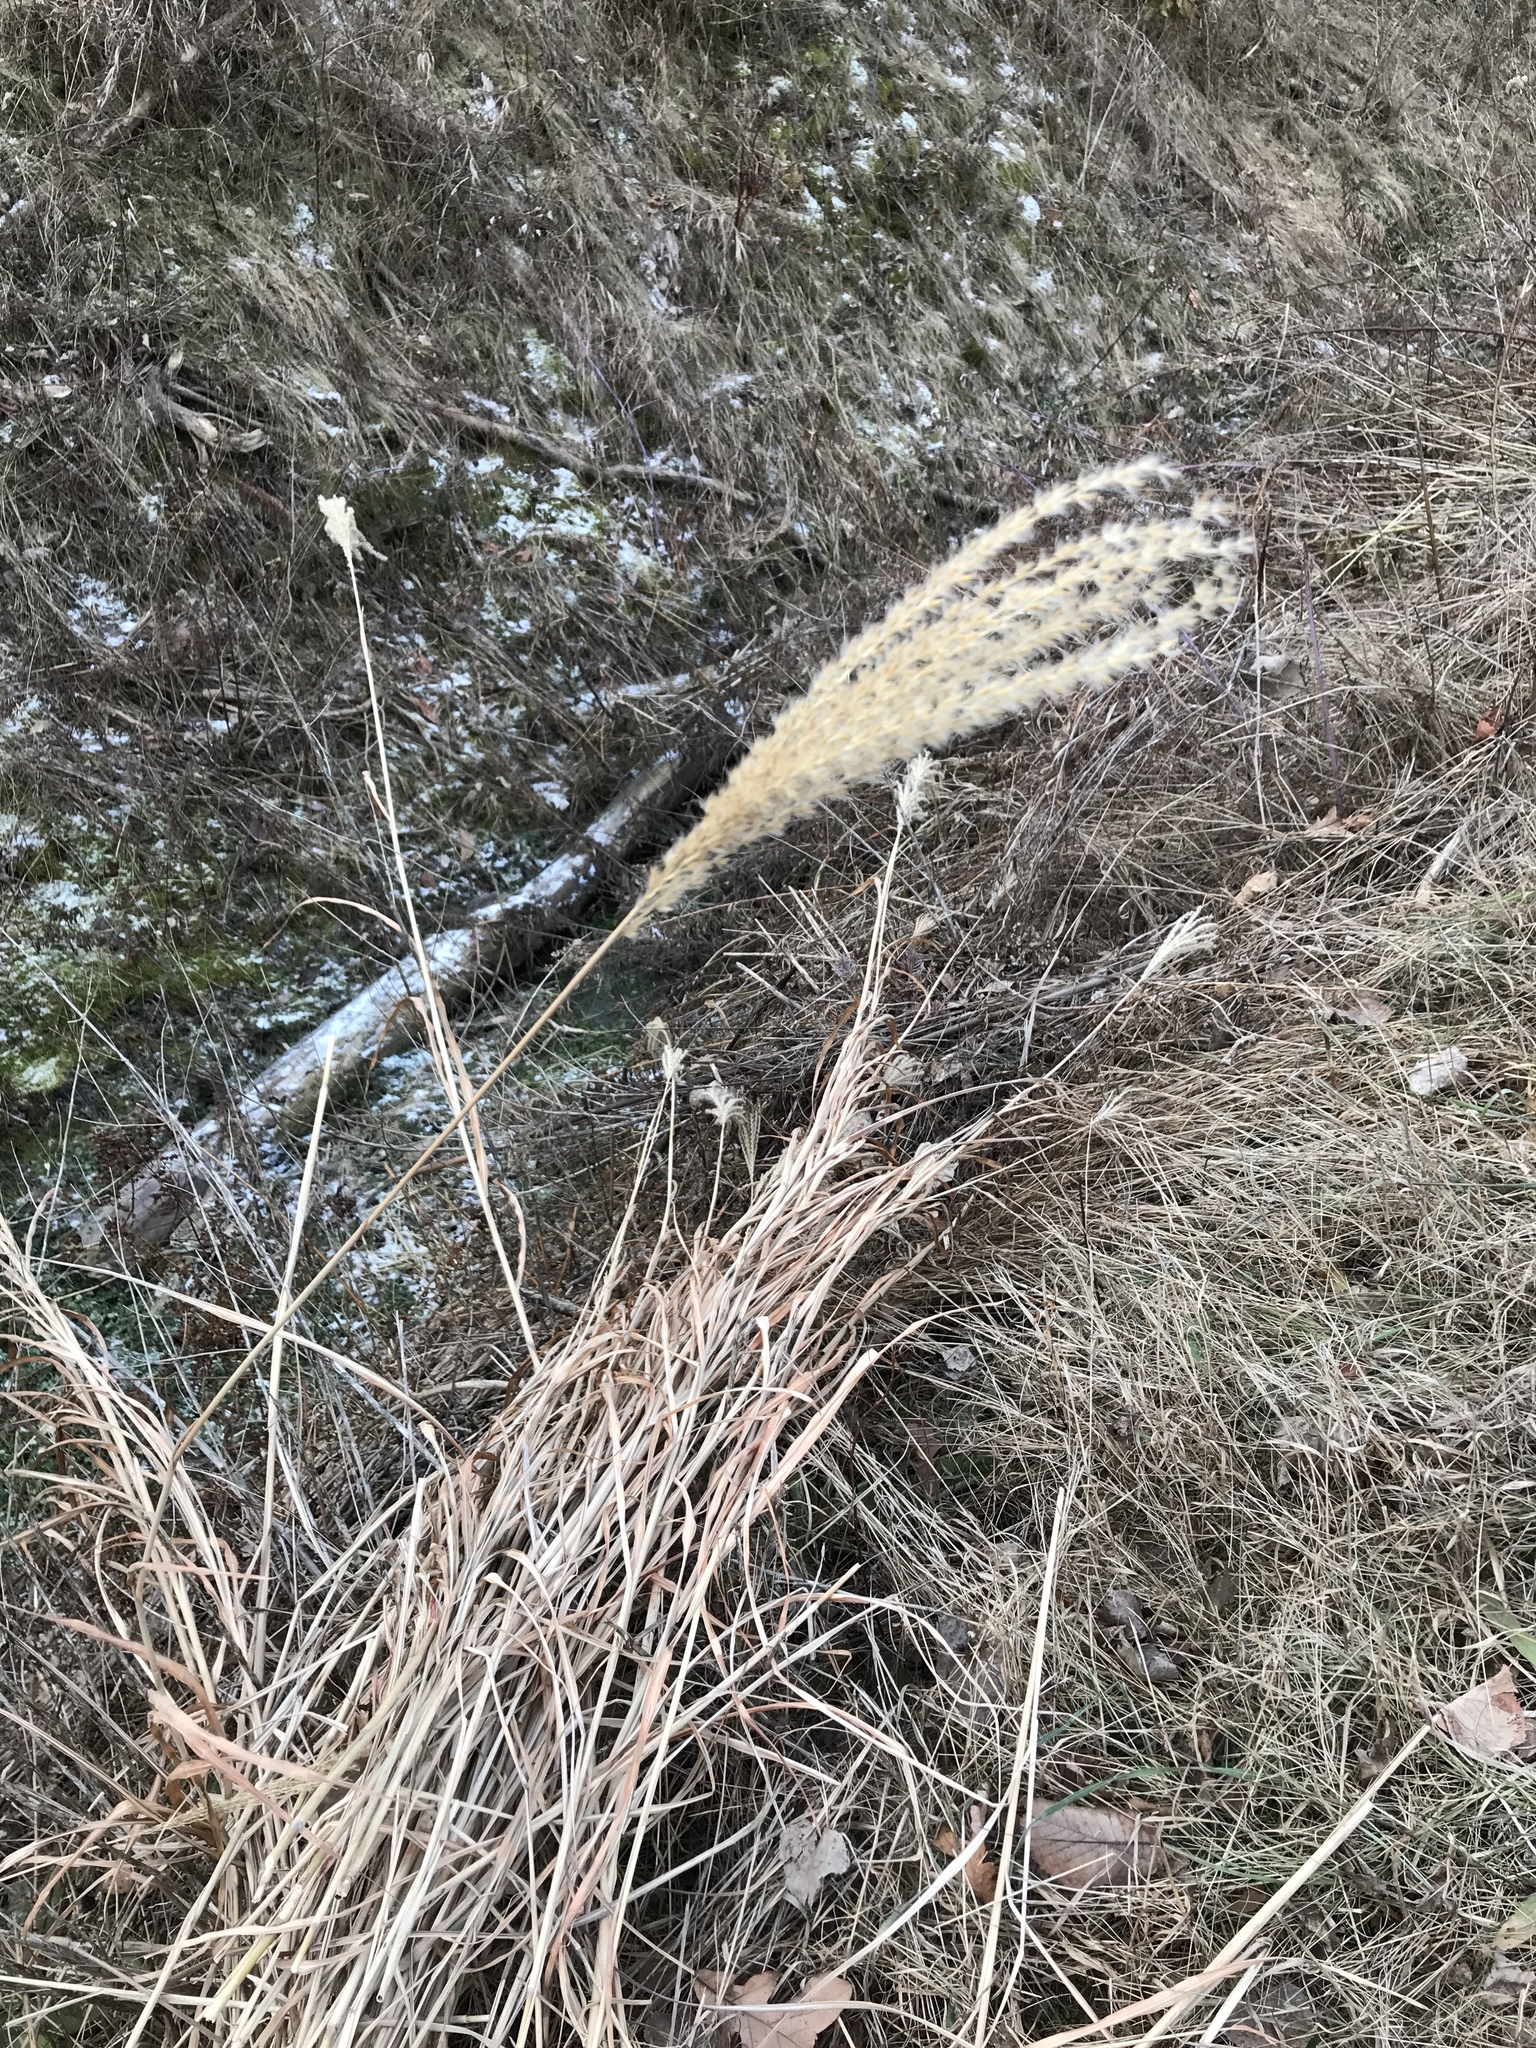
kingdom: Plantae
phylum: Tracheophyta
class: Liliopsida
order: Poales
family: Poaceae
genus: Miscanthus
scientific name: Miscanthus sinensis
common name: Chinese silvergrass
